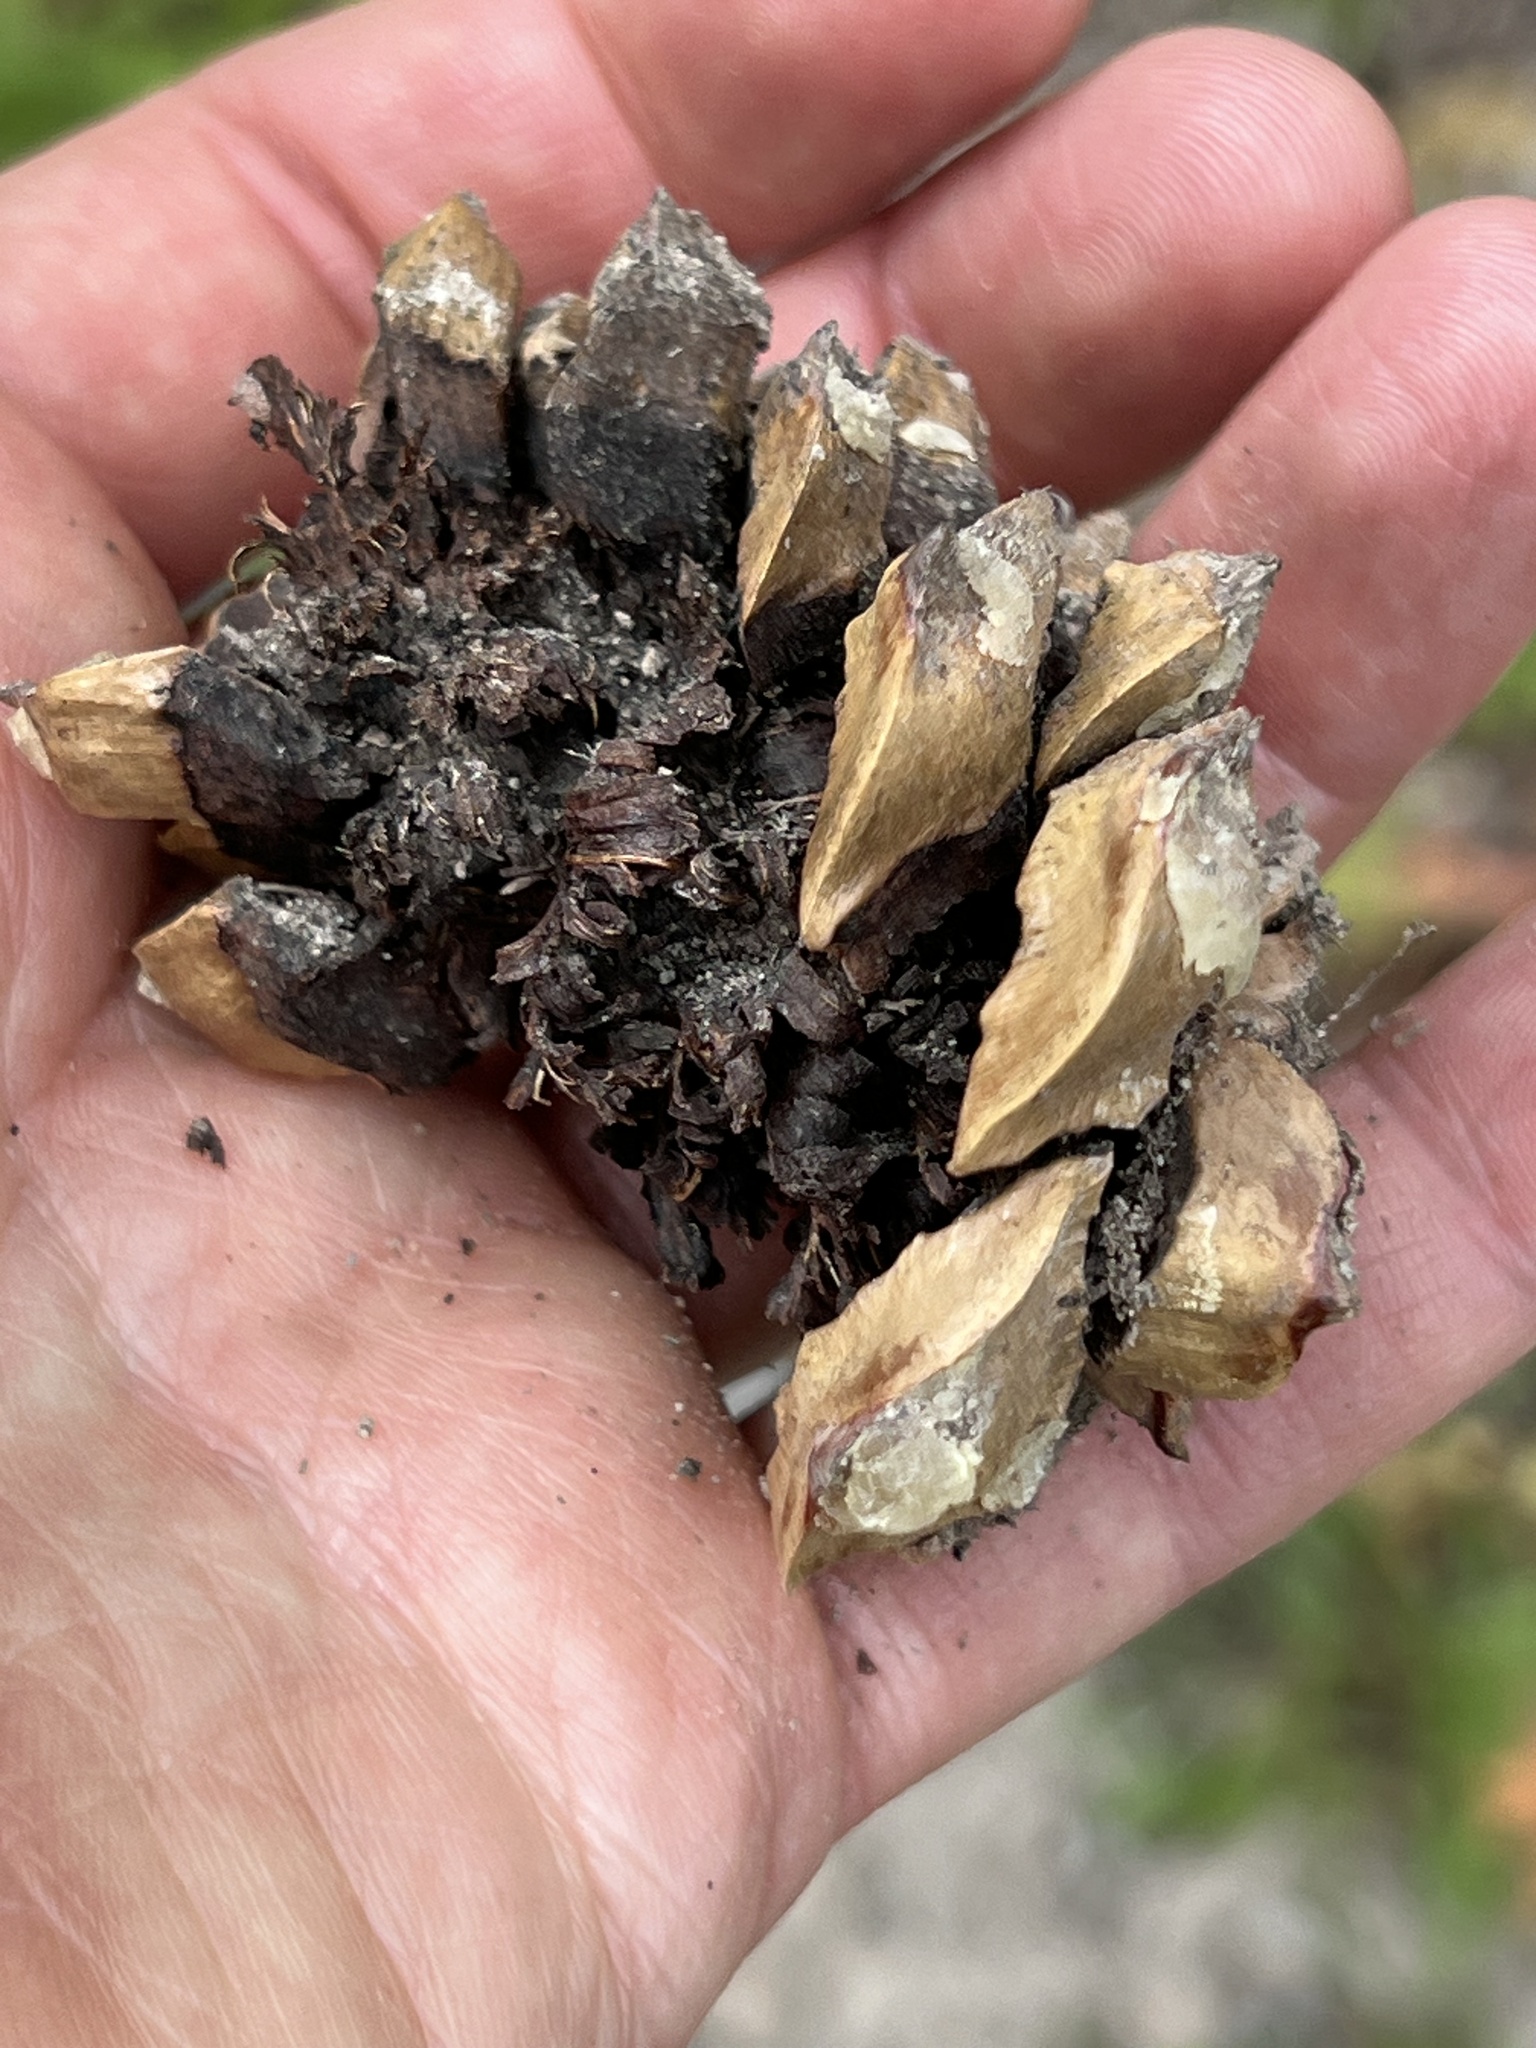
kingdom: Plantae
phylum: Tracheophyta
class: Pinopsida
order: Pinales
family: Pinaceae
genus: Pinus
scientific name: Pinus albicaulis
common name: Whitebark pine
